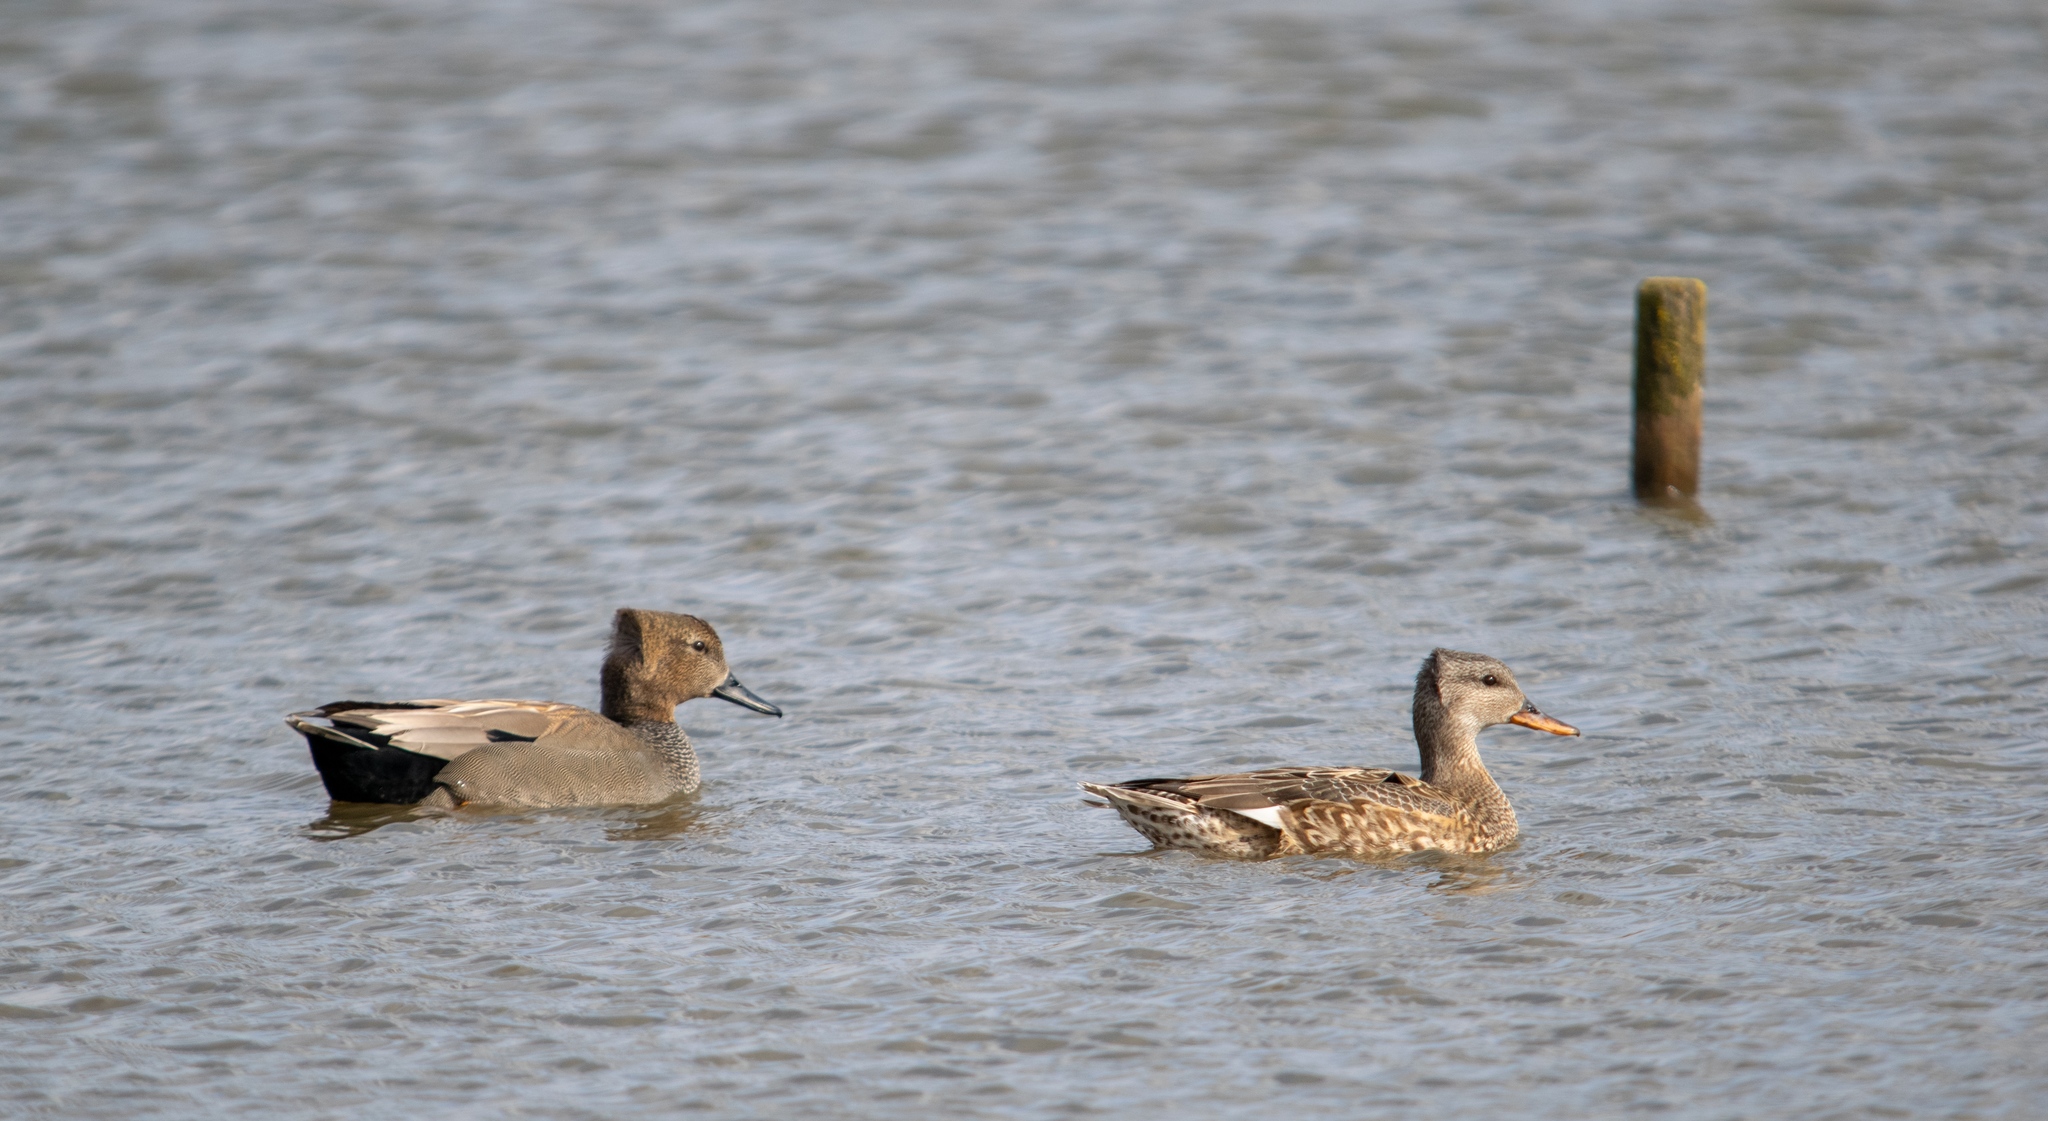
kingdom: Animalia
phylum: Chordata
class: Aves
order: Anseriformes
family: Anatidae
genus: Mareca
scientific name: Mareca strepera
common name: Gadwall
